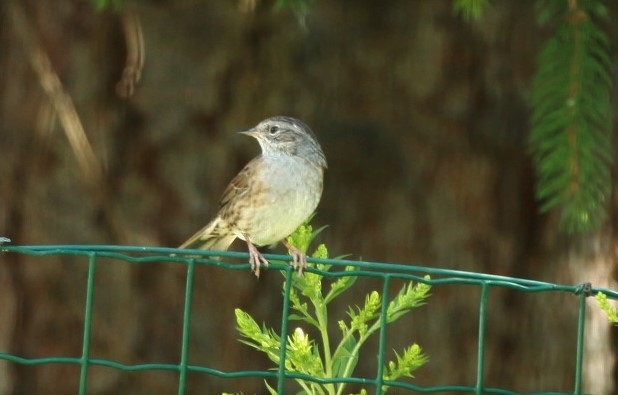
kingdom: Animalia
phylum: Chordata
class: Aves
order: Passeriformes
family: Prunellidae
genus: Prunella
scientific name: Prunella modularis
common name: Dunnock
